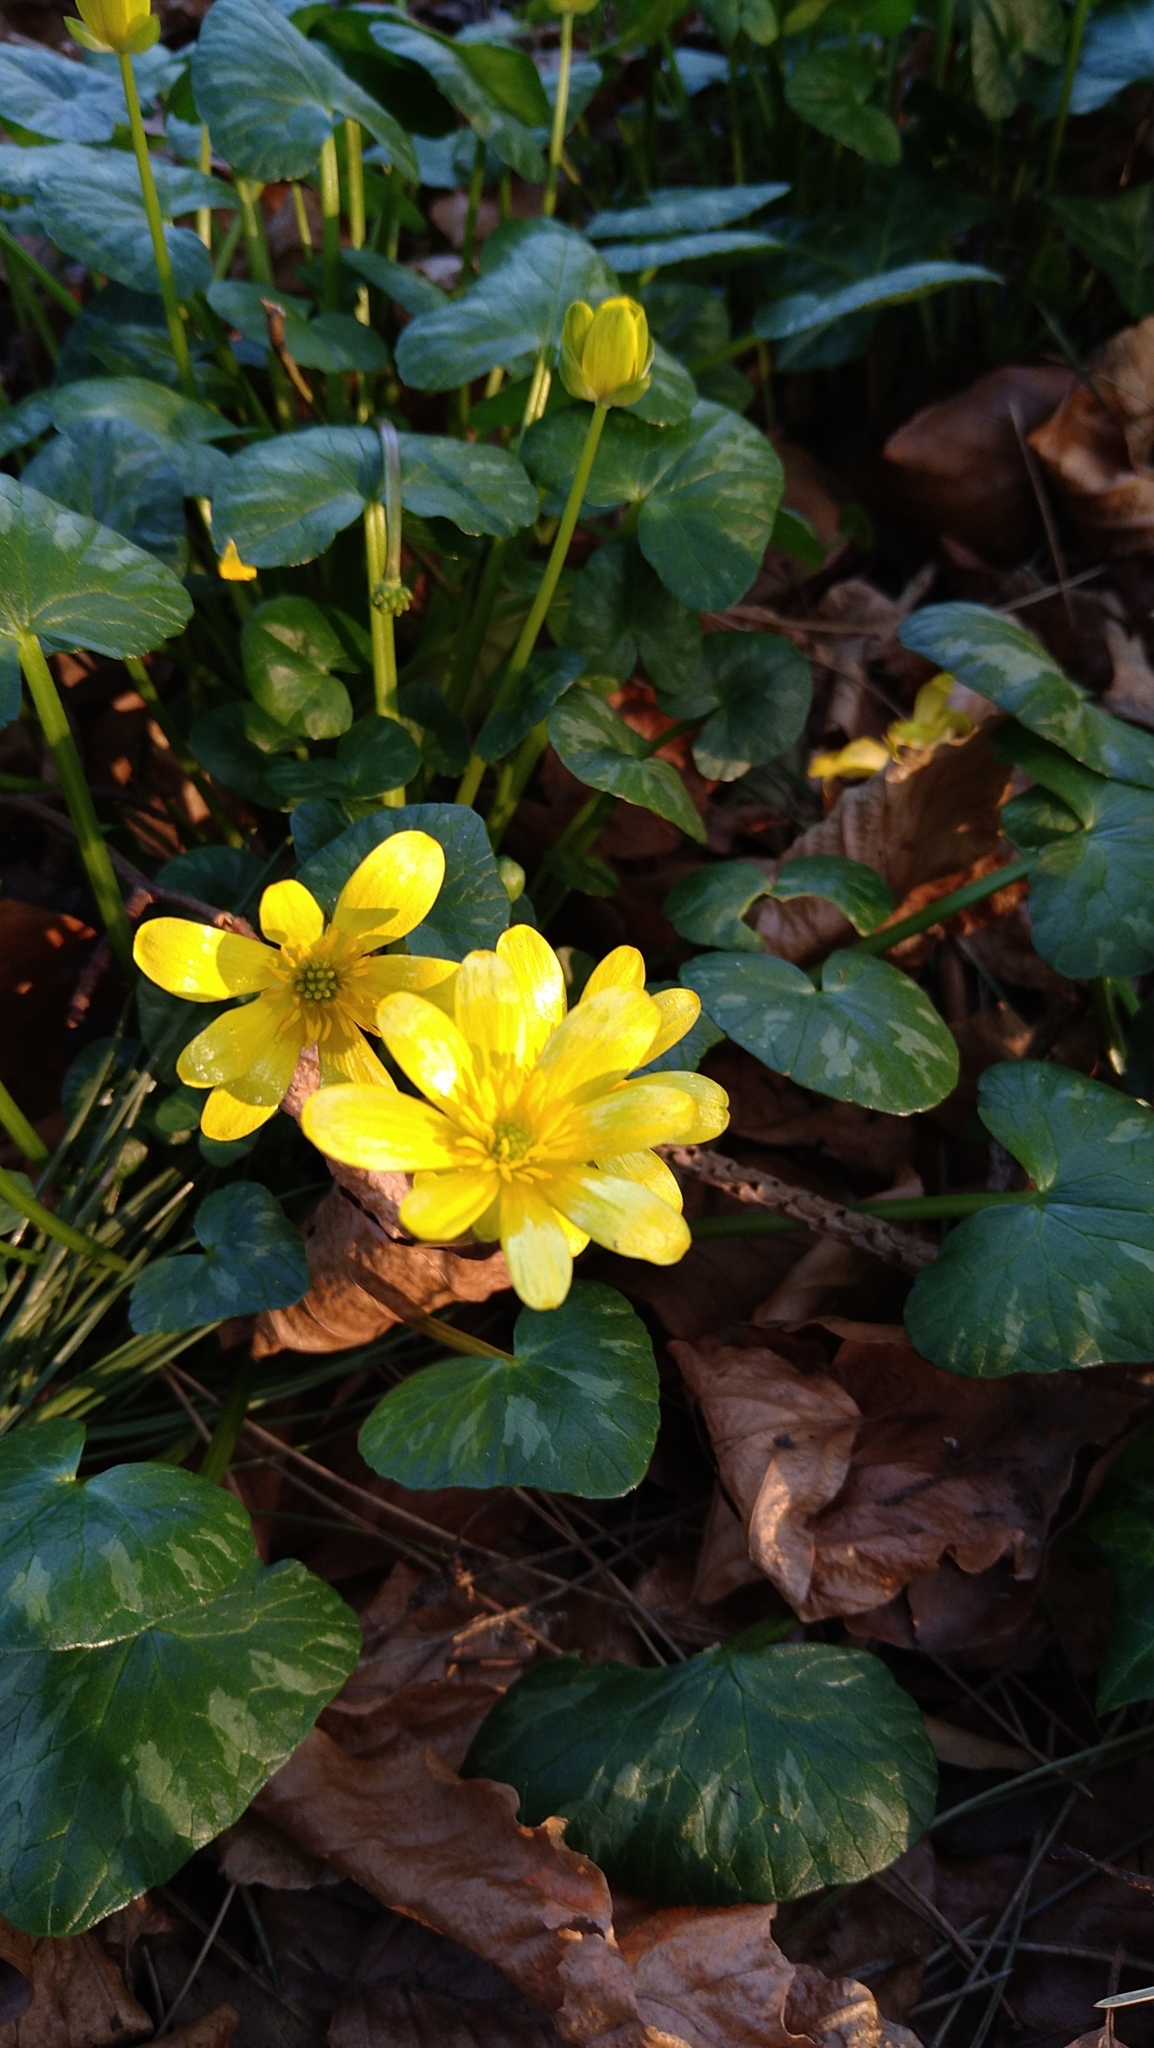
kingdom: Plantae
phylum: Tracheophyta
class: Magnoliopsida
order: Ranunculales
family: Ranunculaceae
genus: Ficaria
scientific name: Ficaria verna
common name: Lesser celandine
